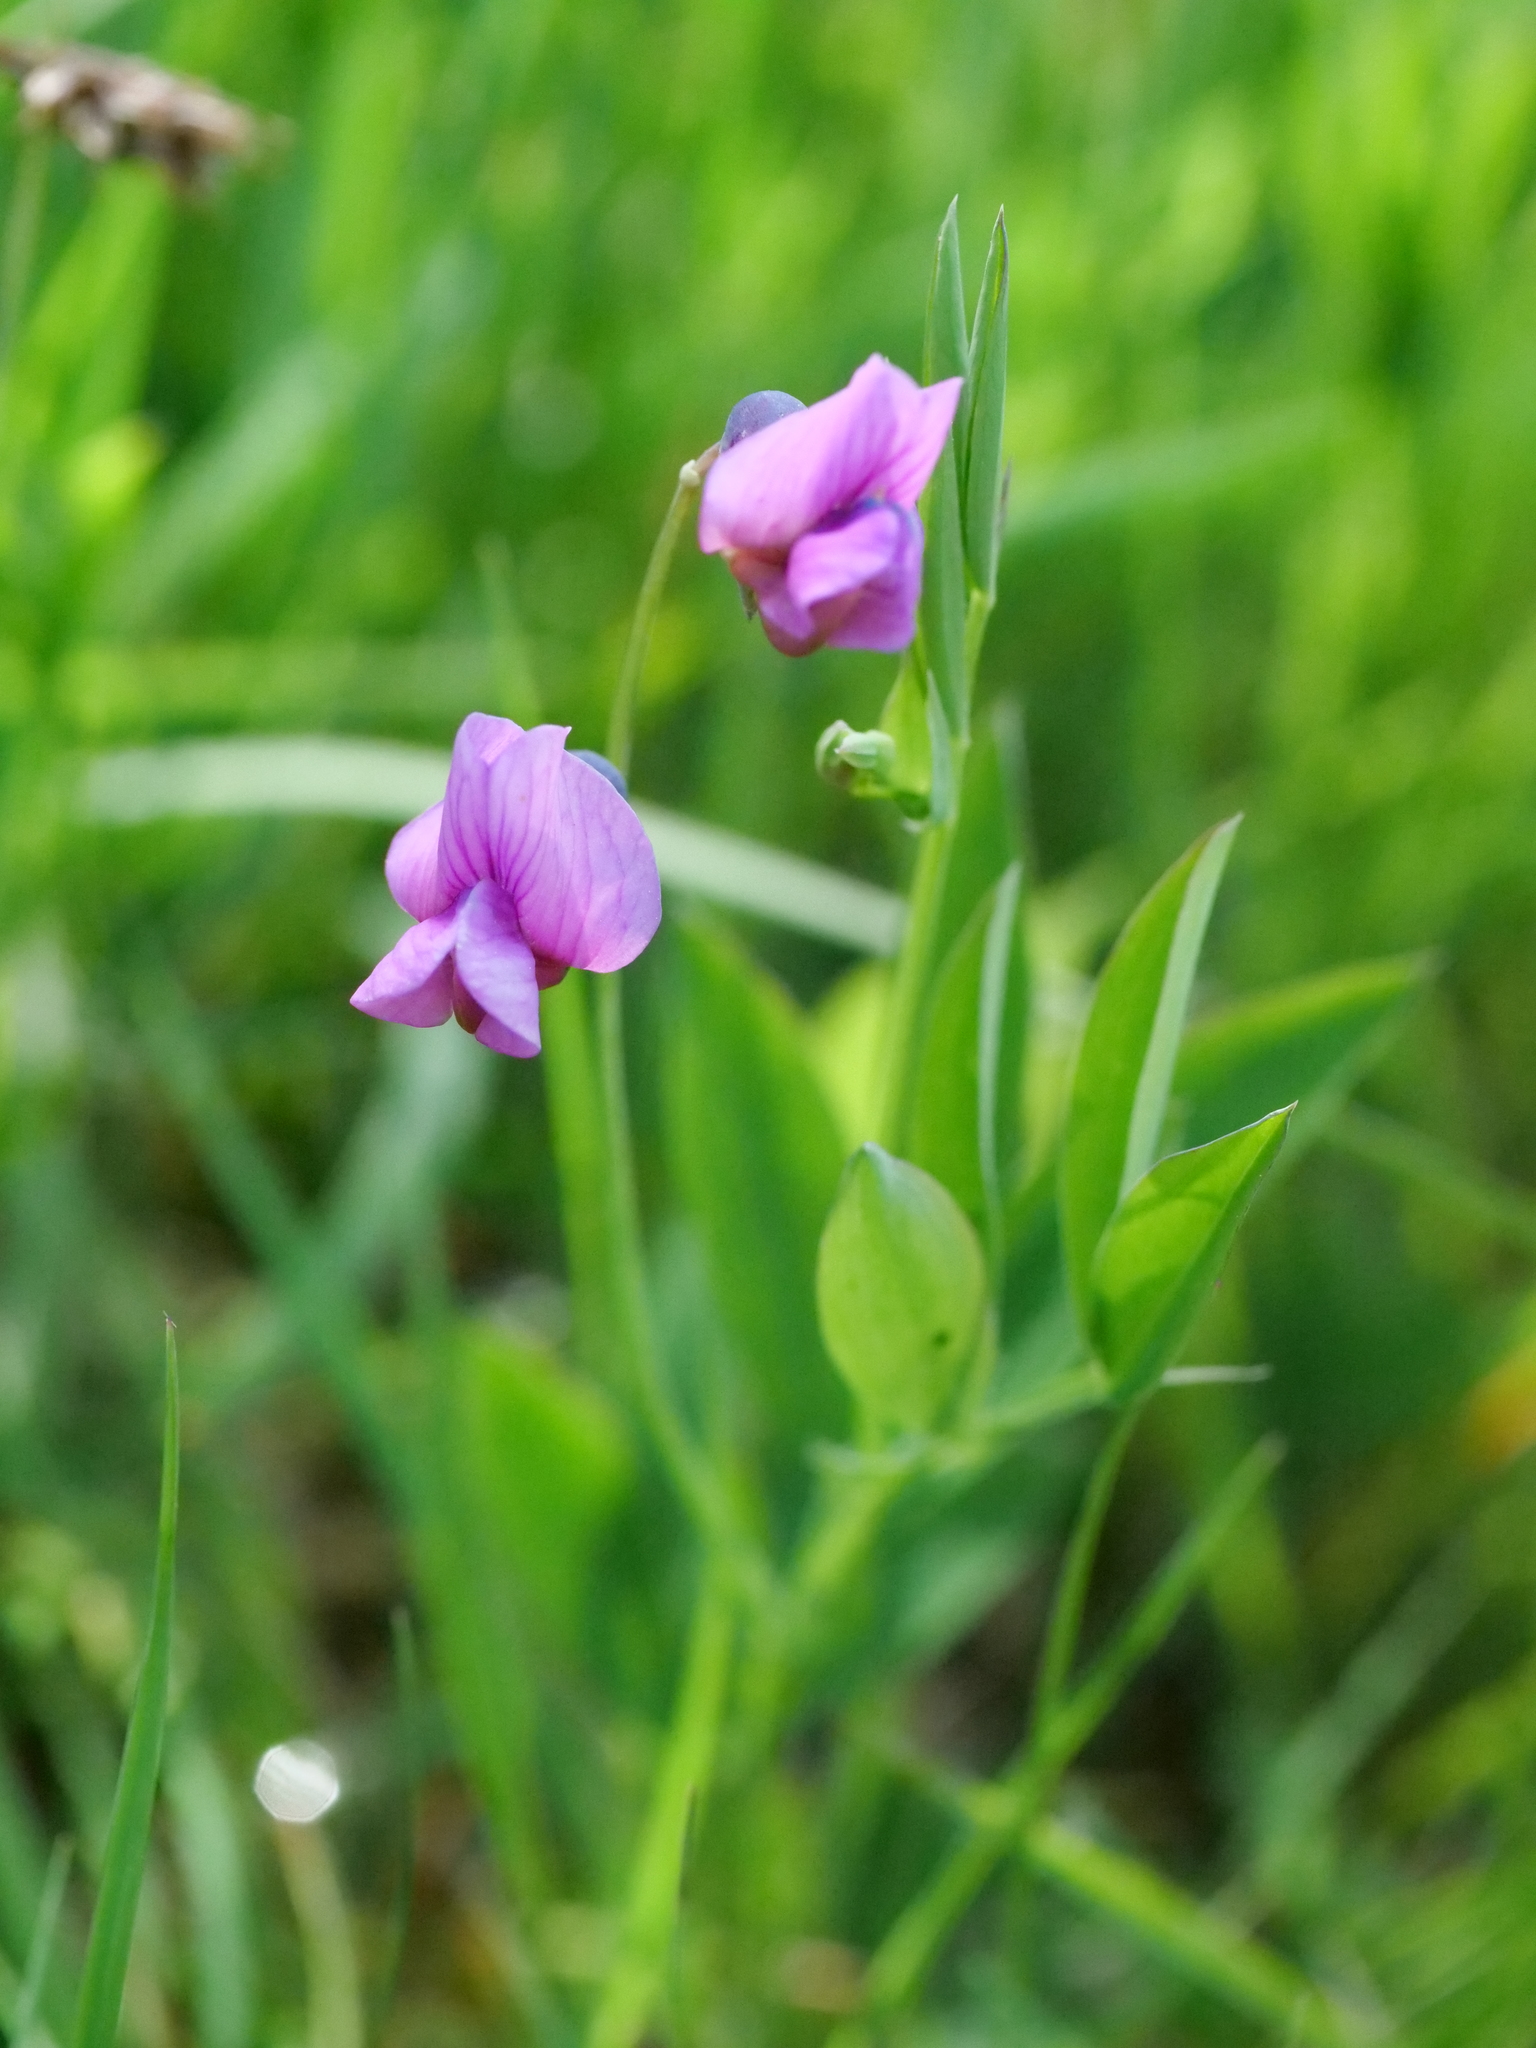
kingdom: Plantae
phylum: Tracheophyta
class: Magnoliopsida
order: Fabales
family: Fabaceae
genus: Lathyrus
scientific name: Lathyrus linifolius
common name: Bitter-vetch
